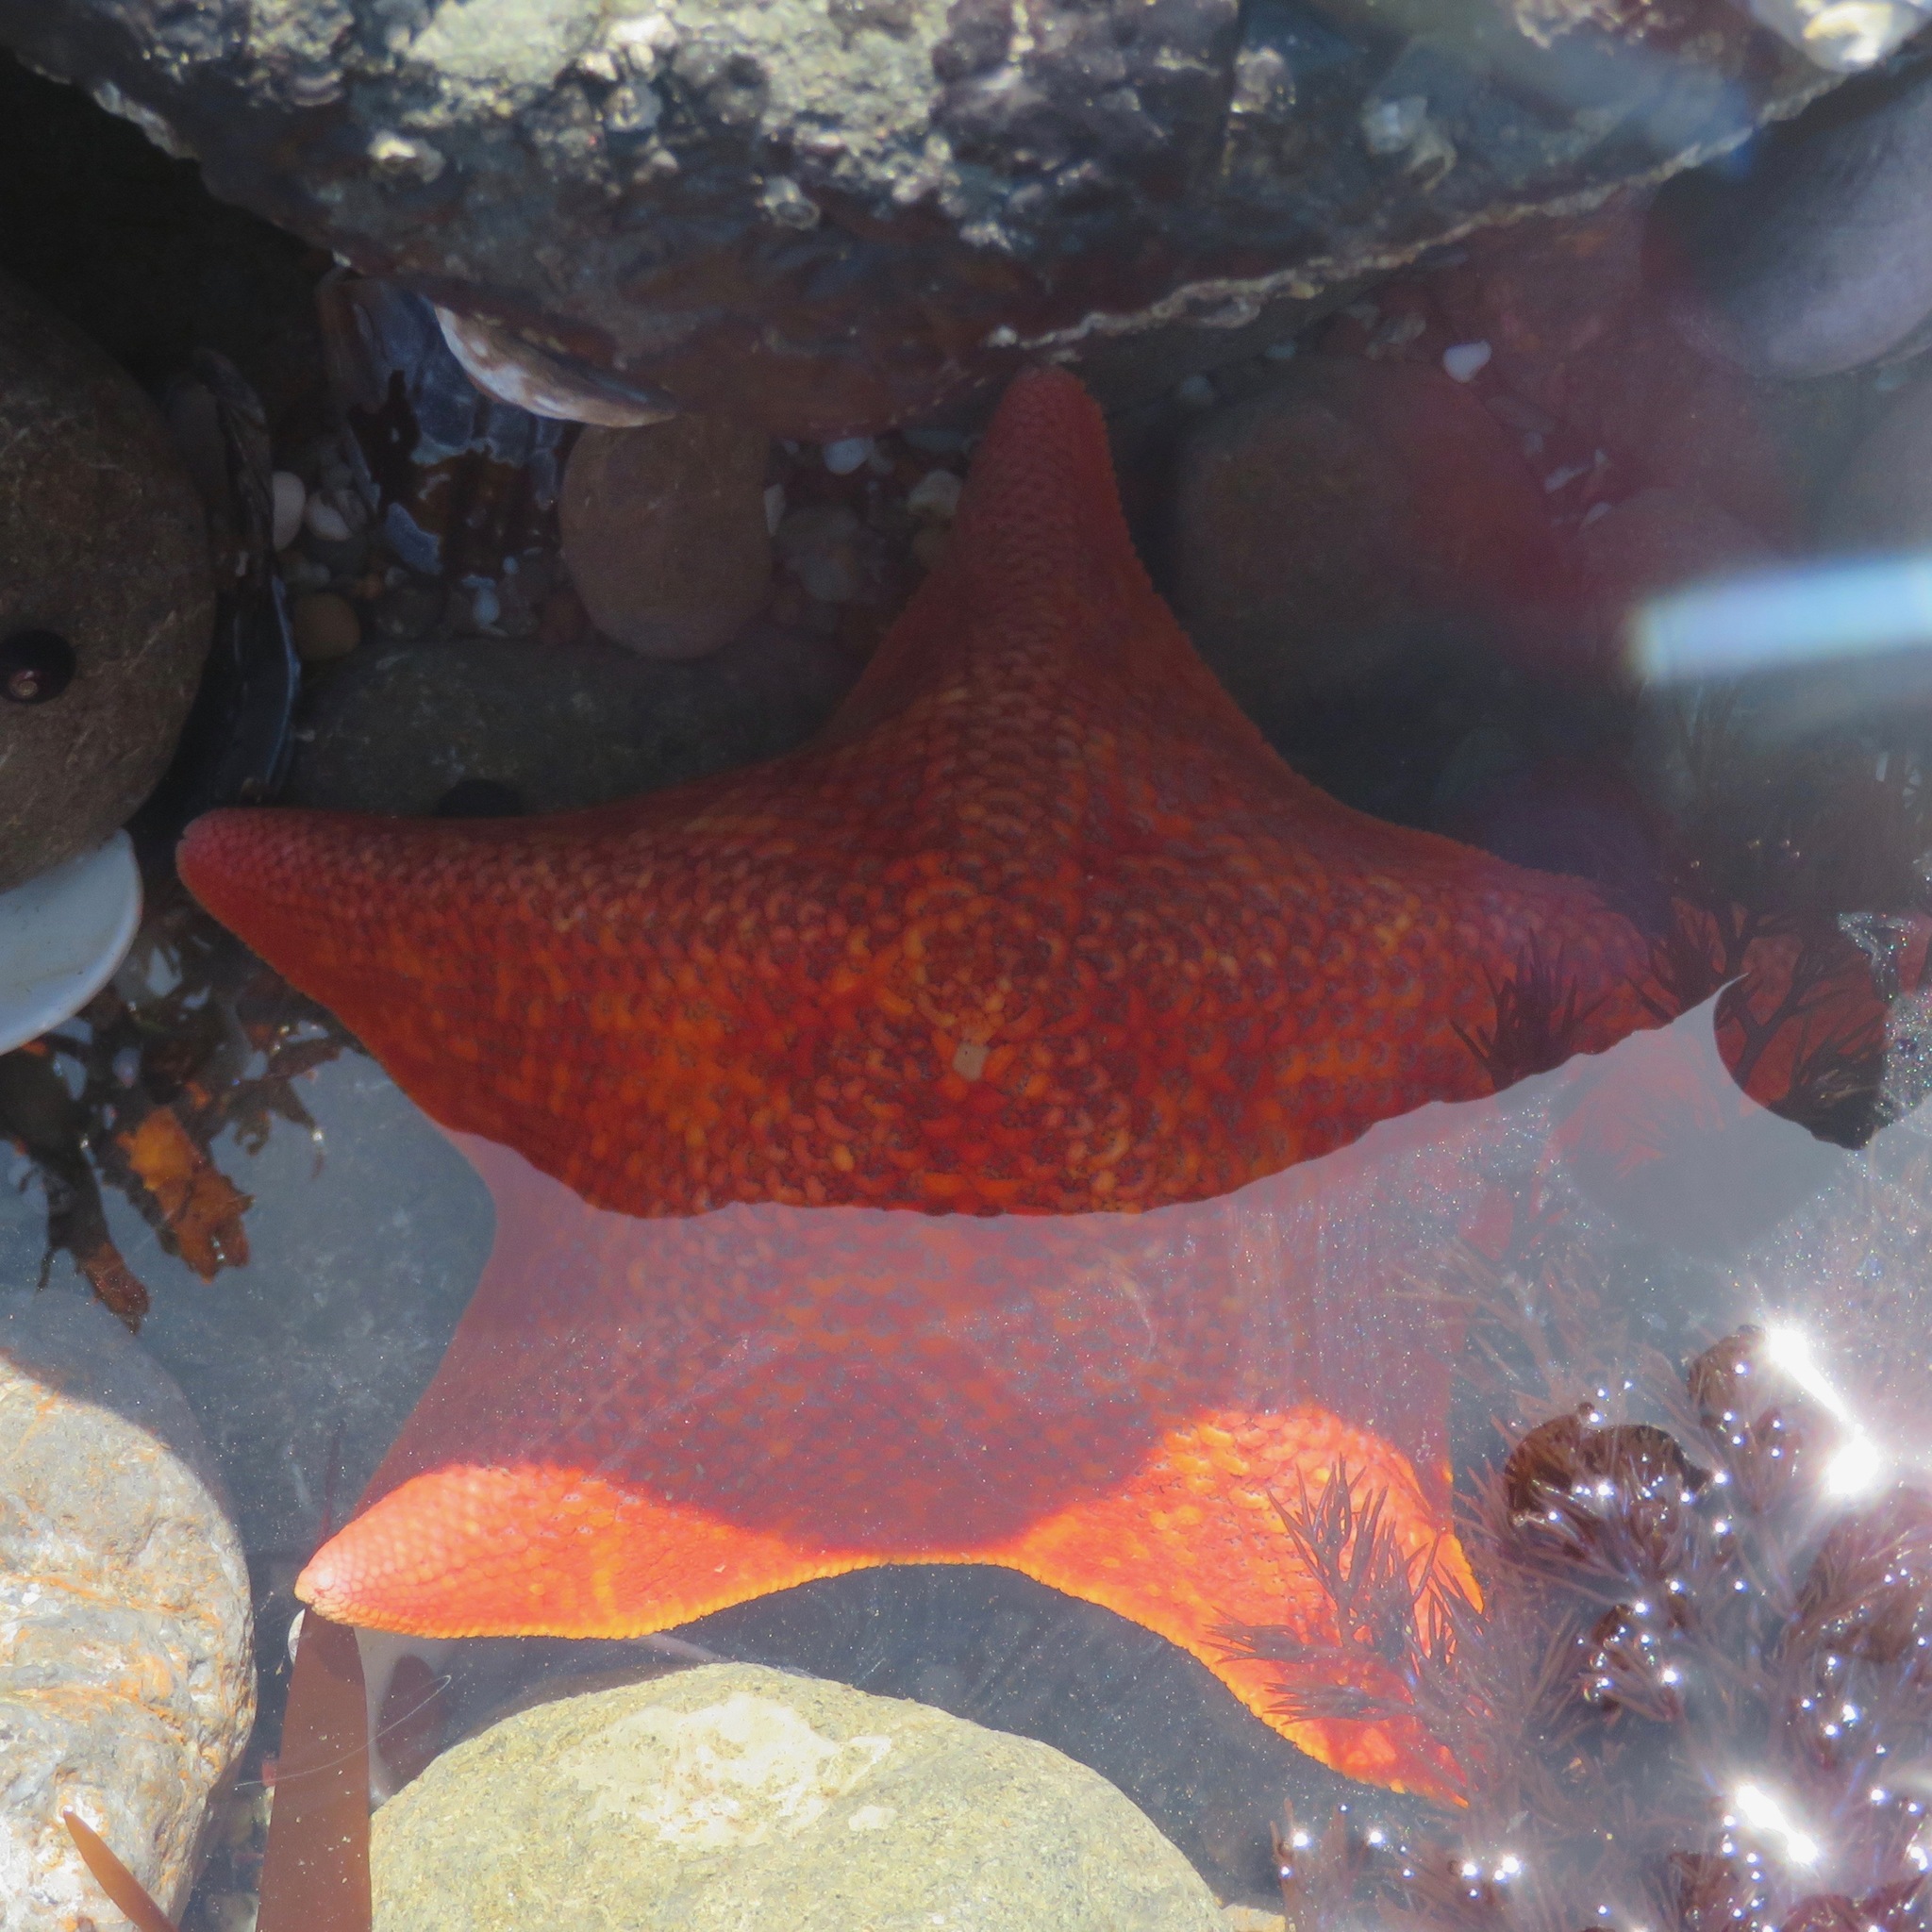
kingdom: Animalia
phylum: Echinodermata
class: Asteroidea
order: Valvatida
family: Asterinidae
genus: Patiria
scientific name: Patiria miniata
